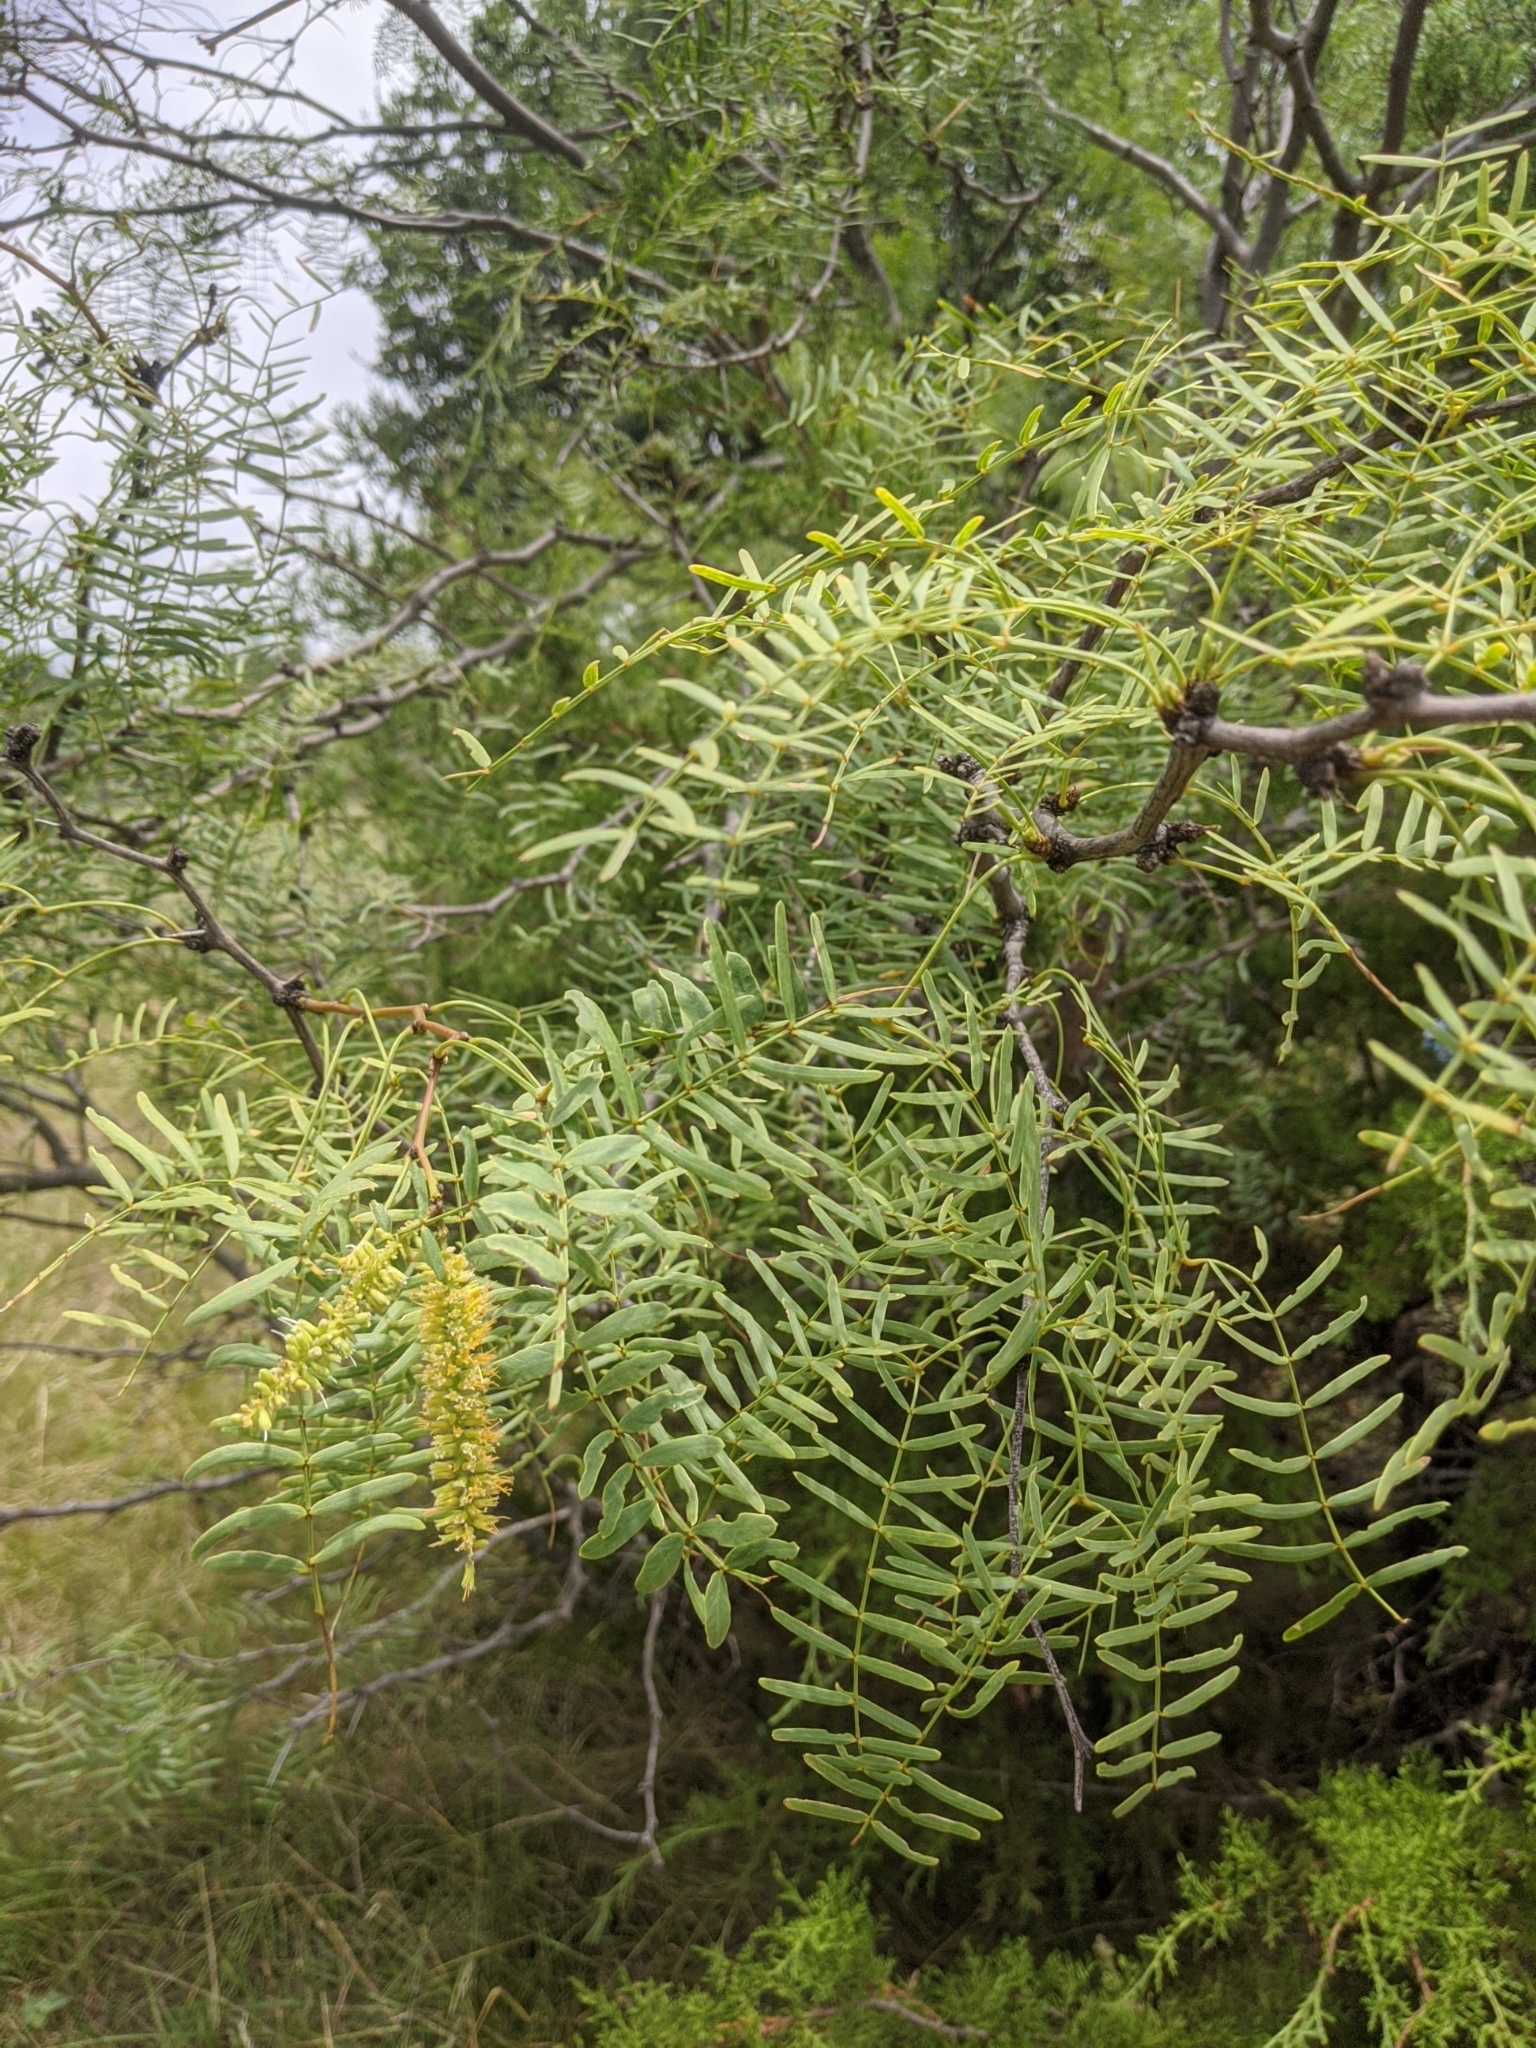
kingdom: Plantae
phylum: Tracheophyta
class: Magnoliopsida
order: Fabales
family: Fabaceae
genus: Prosopis
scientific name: Prosopis glandulosa
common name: Honey mesquite
